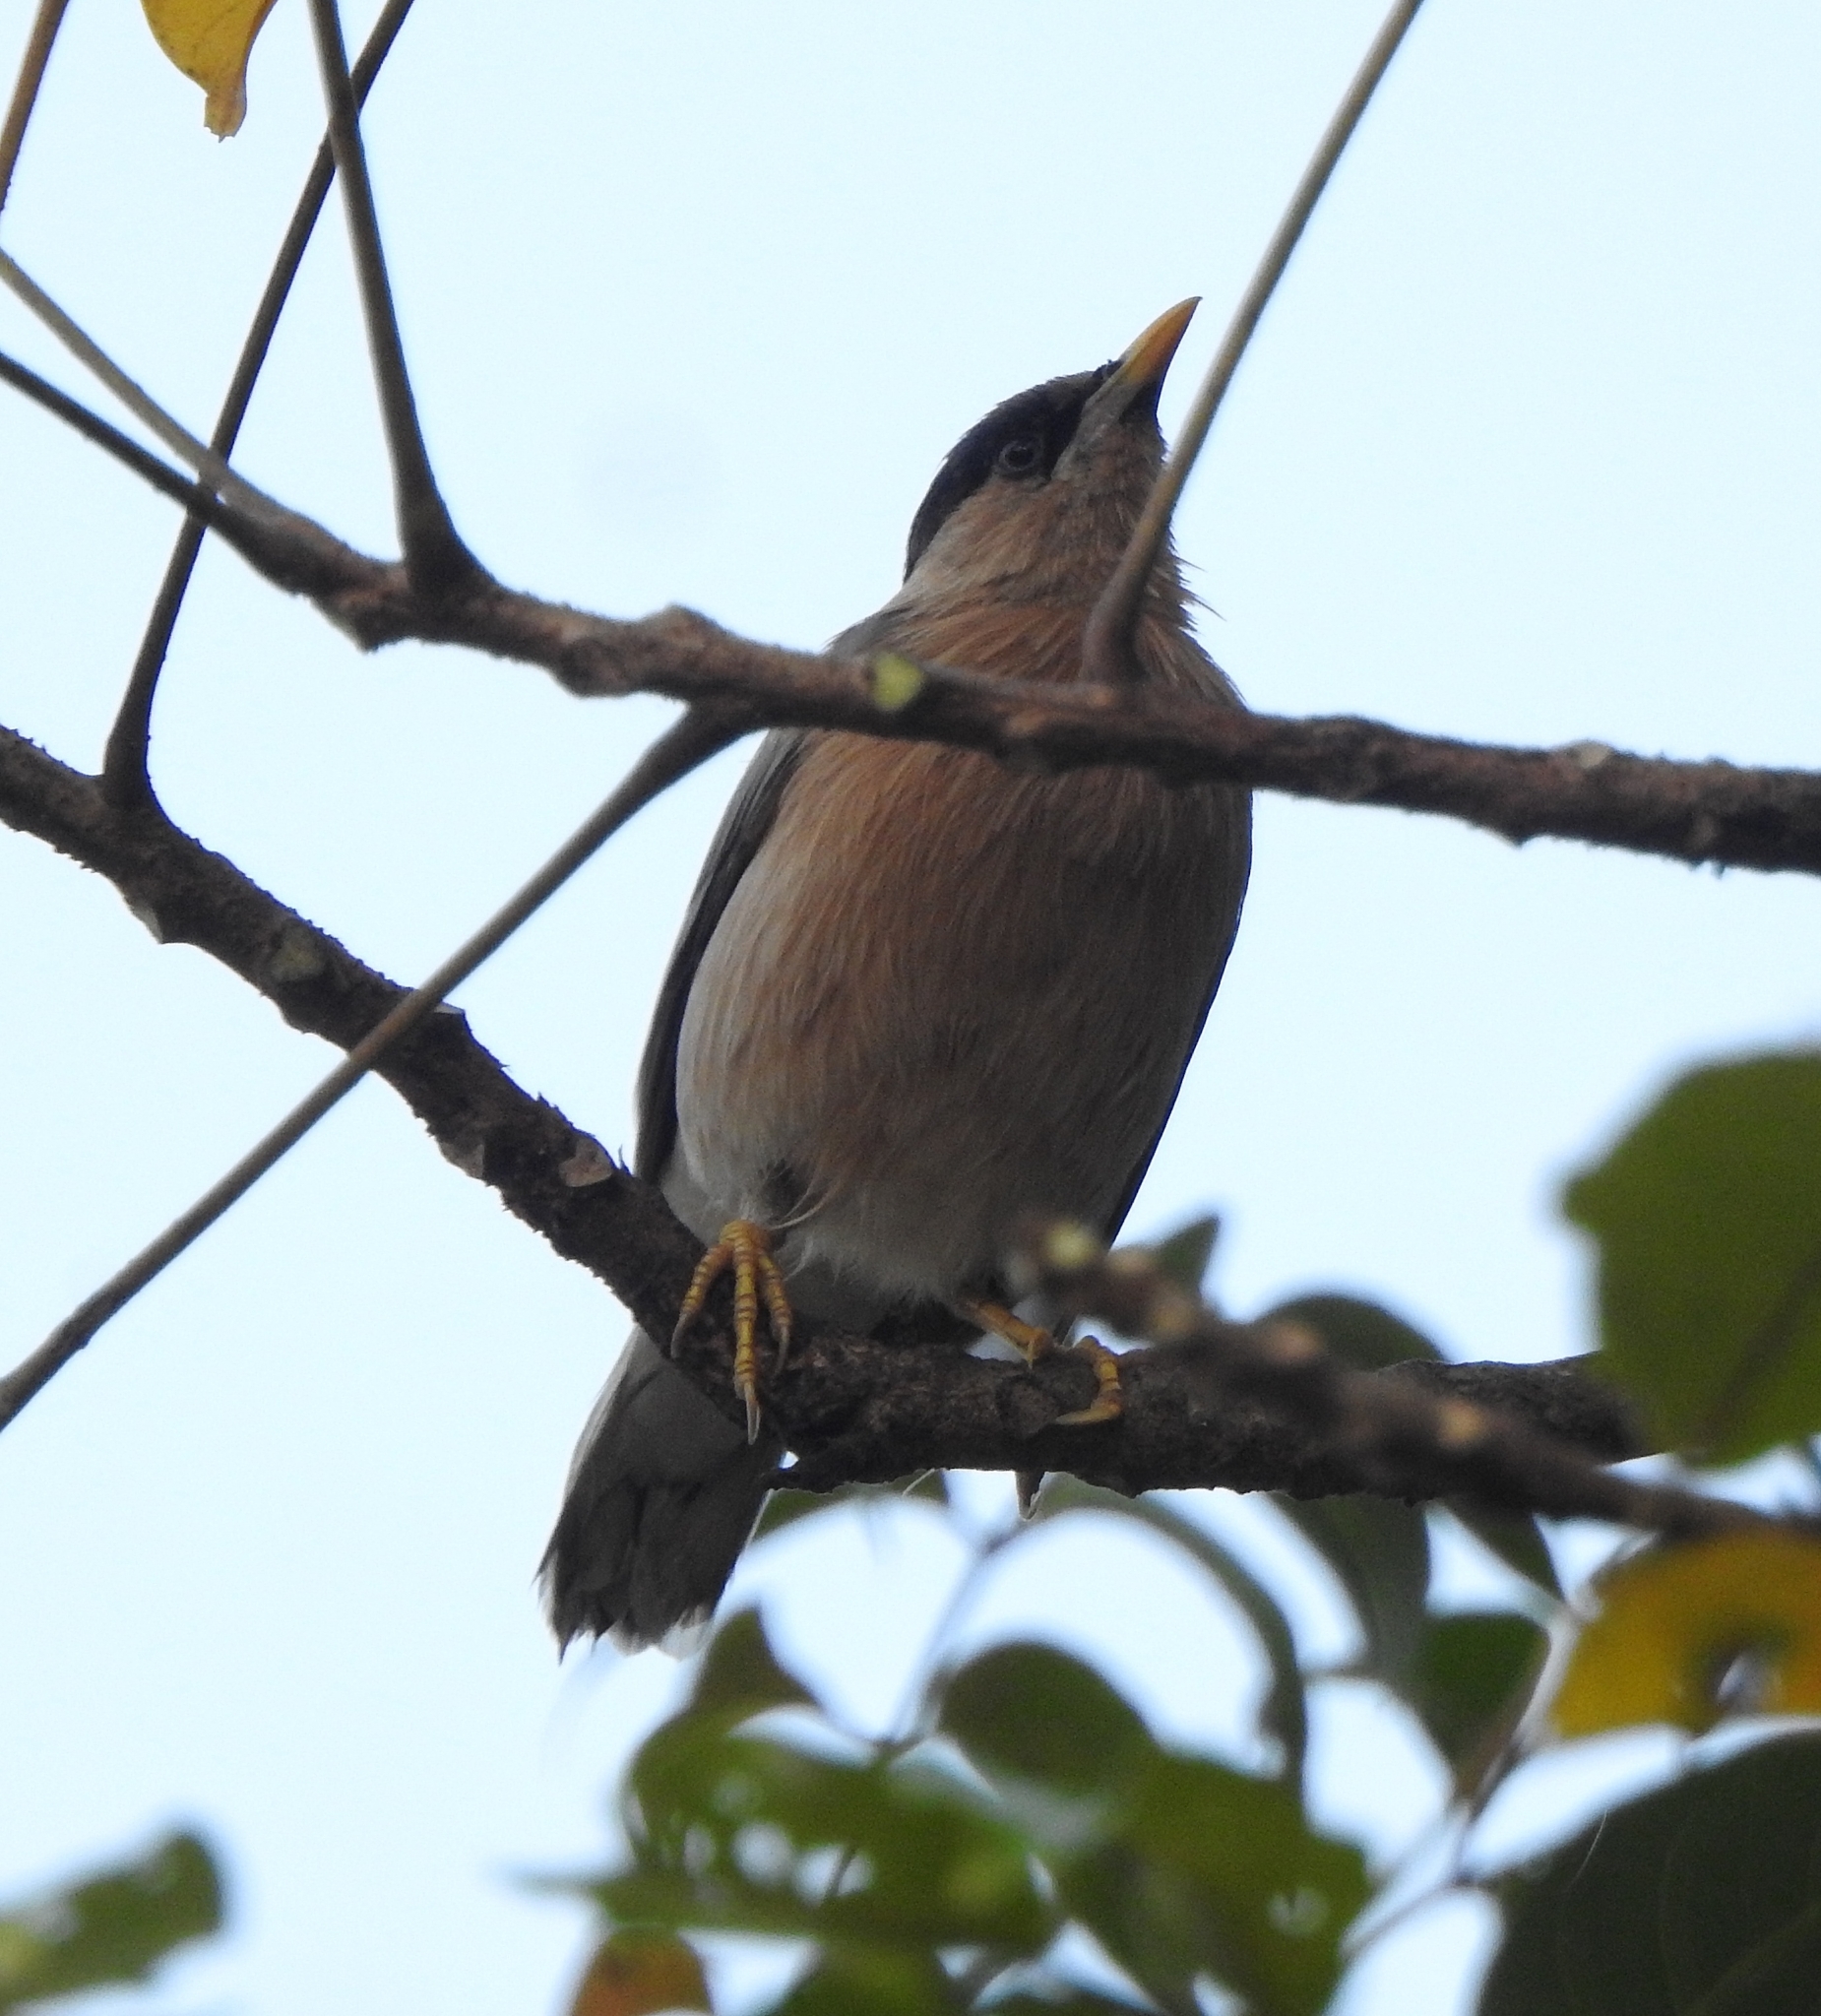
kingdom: Animalia
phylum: Chordata
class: Aves
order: Passeriformes
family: Sturnidae
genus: Sturnia
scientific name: Sturnia pagodarum
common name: Brahminy starling
